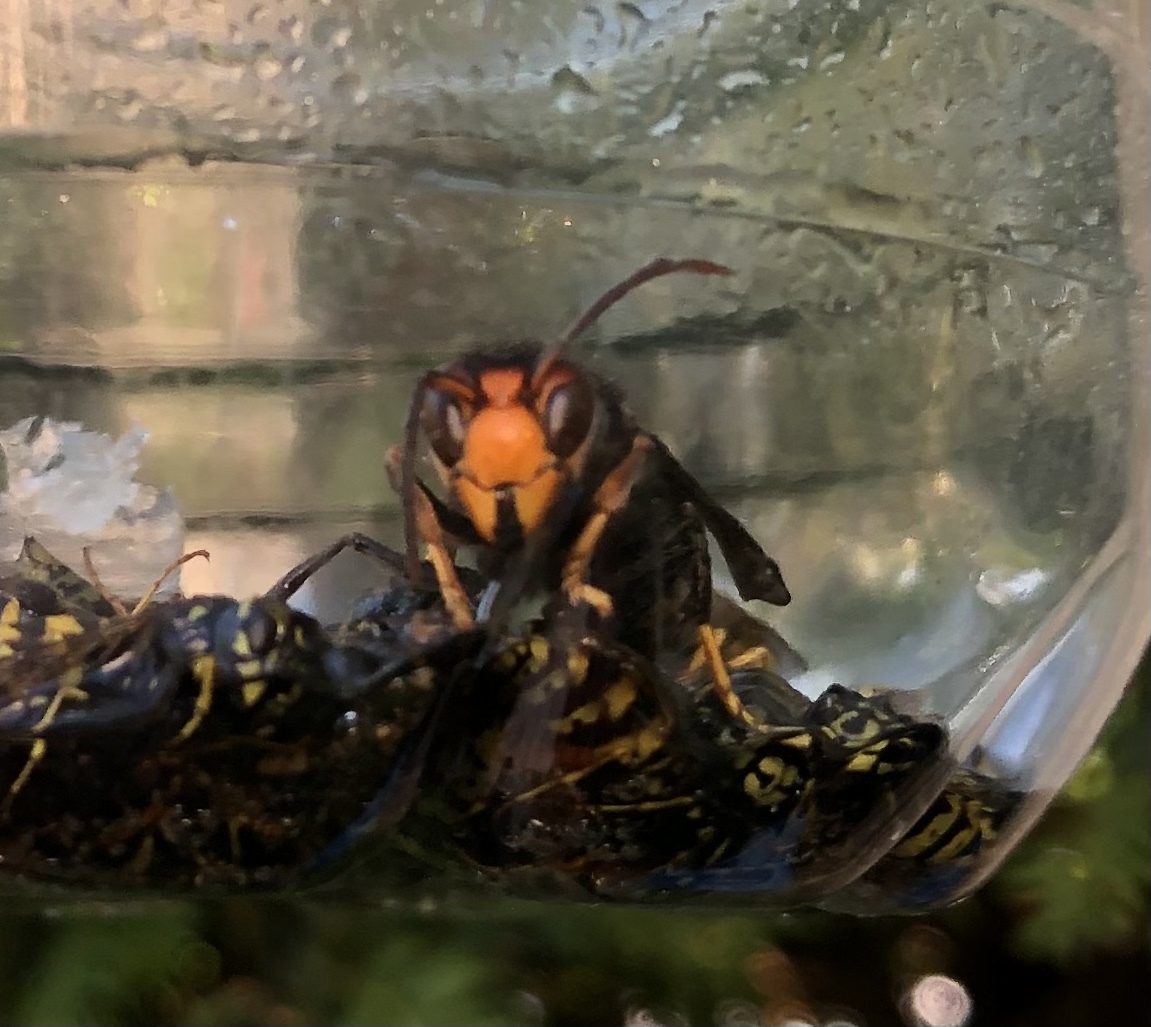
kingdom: Animalia
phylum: Arthropoda
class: Insecta
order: Hymenoptera
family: Vespidae
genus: Vespa
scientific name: Vespa velutina
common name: Asian hornet
